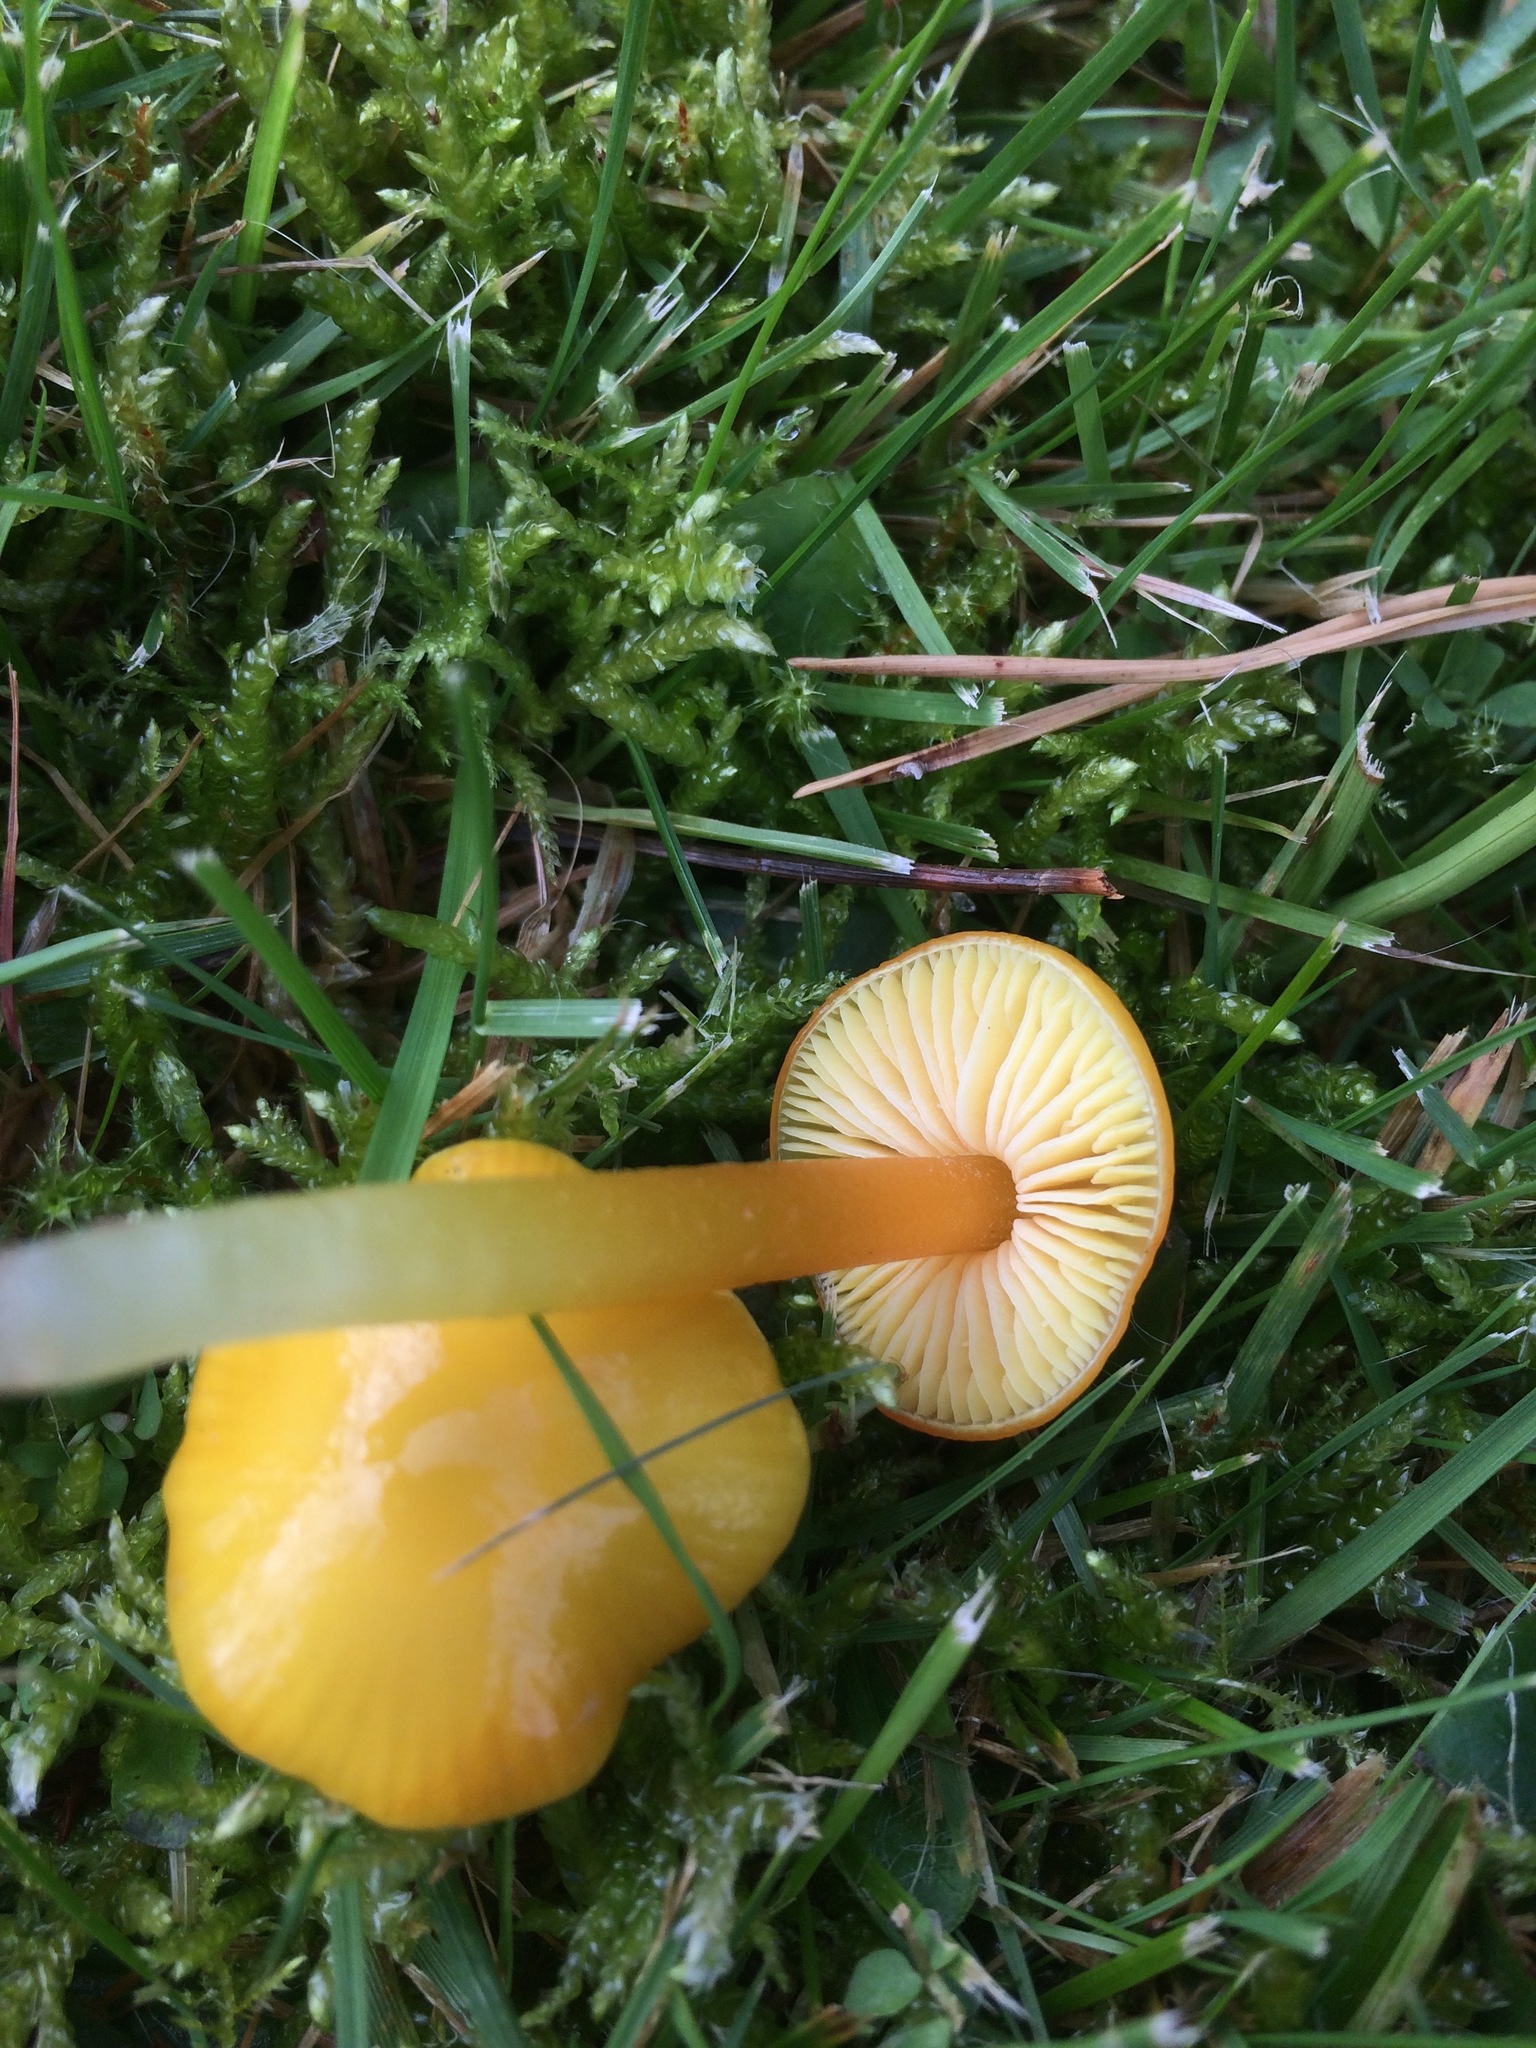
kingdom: Fungi
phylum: Basidiomycota
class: Agaricomycetes
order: Agaricales
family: Hygrophoraceae
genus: Hygrocybe
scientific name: Hygrocybe chlorophana
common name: Golden waxcap
